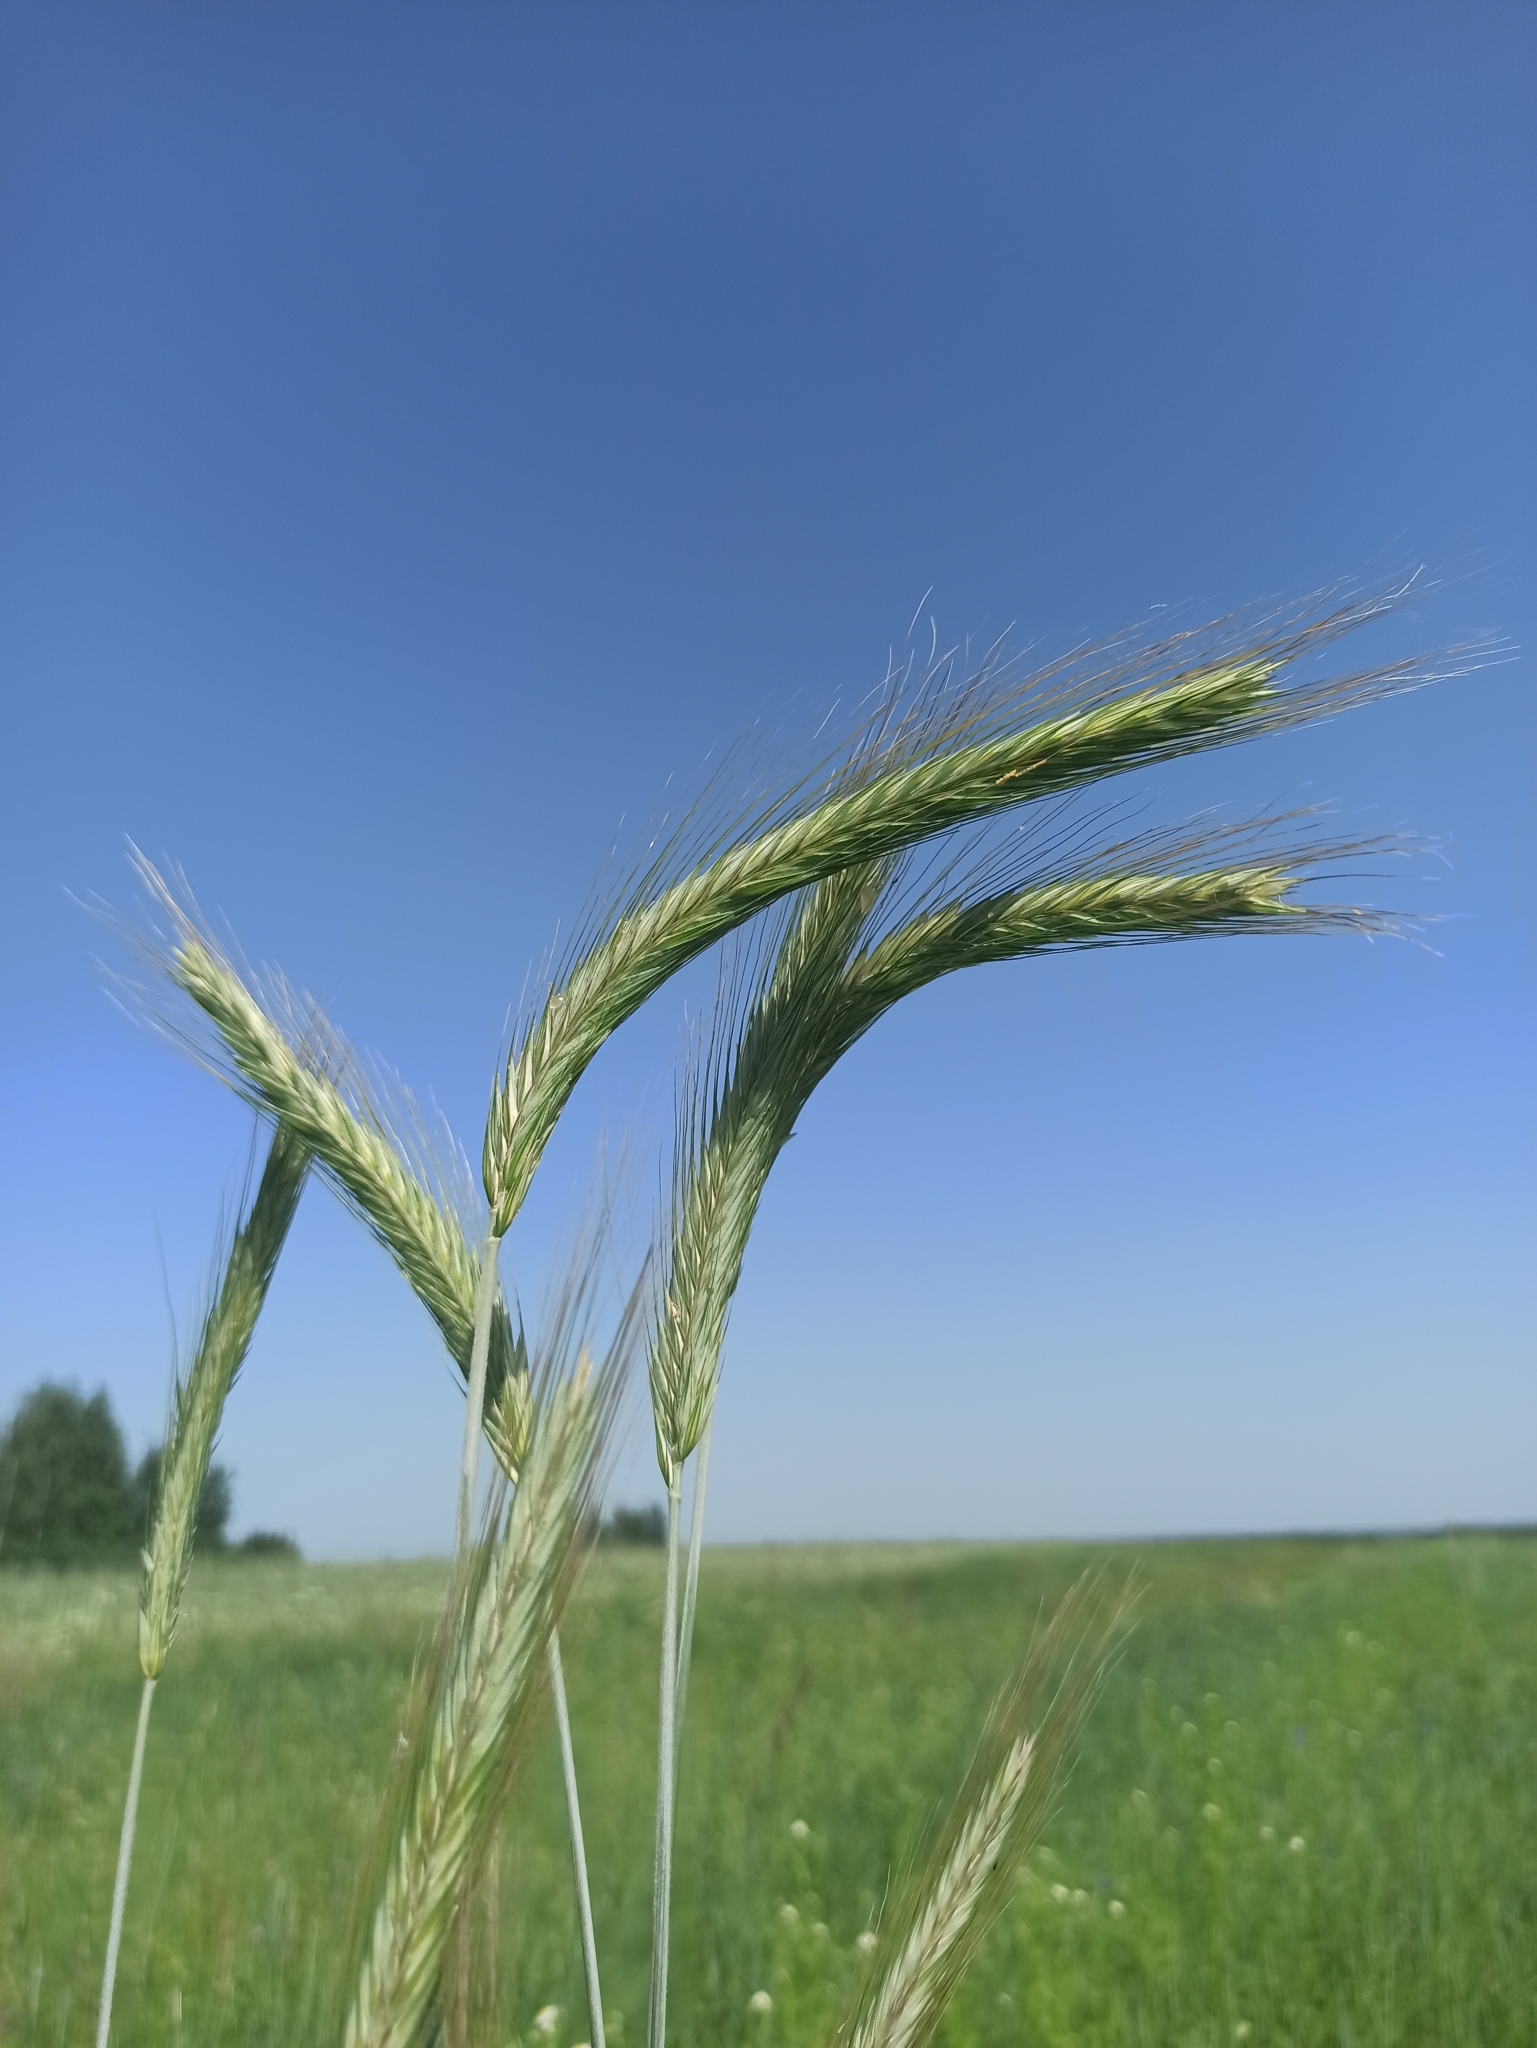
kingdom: Plantae
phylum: Tracheophyta
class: Liliopsida
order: Poales
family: Poaceae
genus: Secale
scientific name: Secale cereale
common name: Rye
